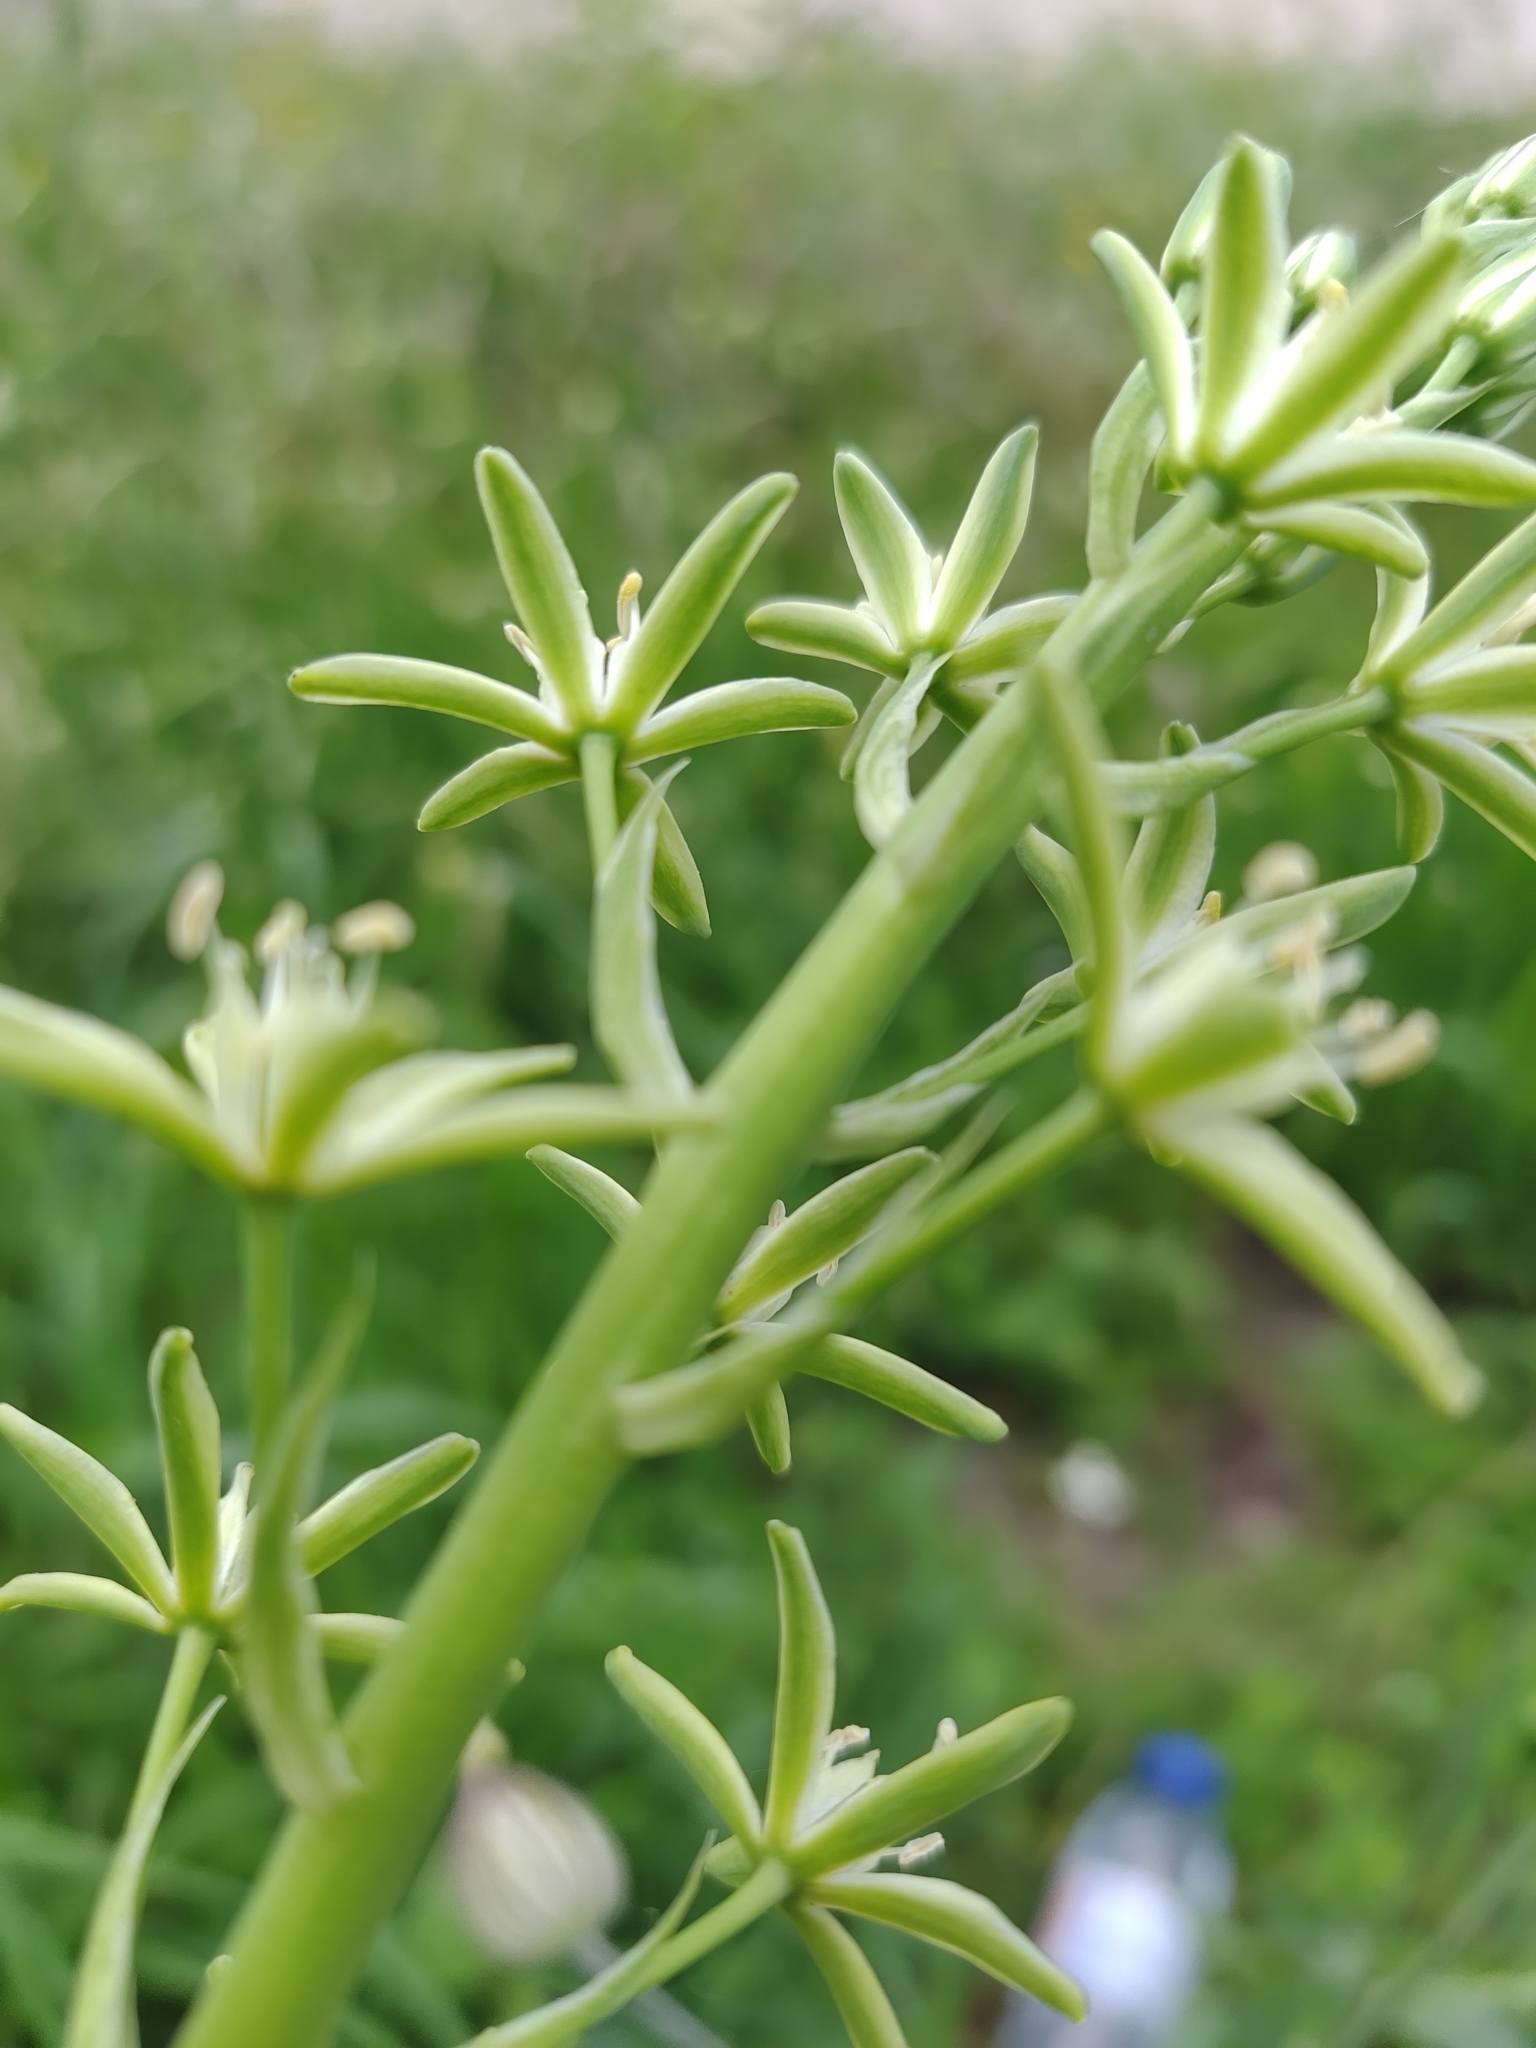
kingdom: Plantae
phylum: Tracheophyta
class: Liliopsida
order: Asparagales
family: Asparagaceae
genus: Ornithogalum
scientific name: Ornithogalum pyrenaicum
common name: Spiked star-of-bethlehem
